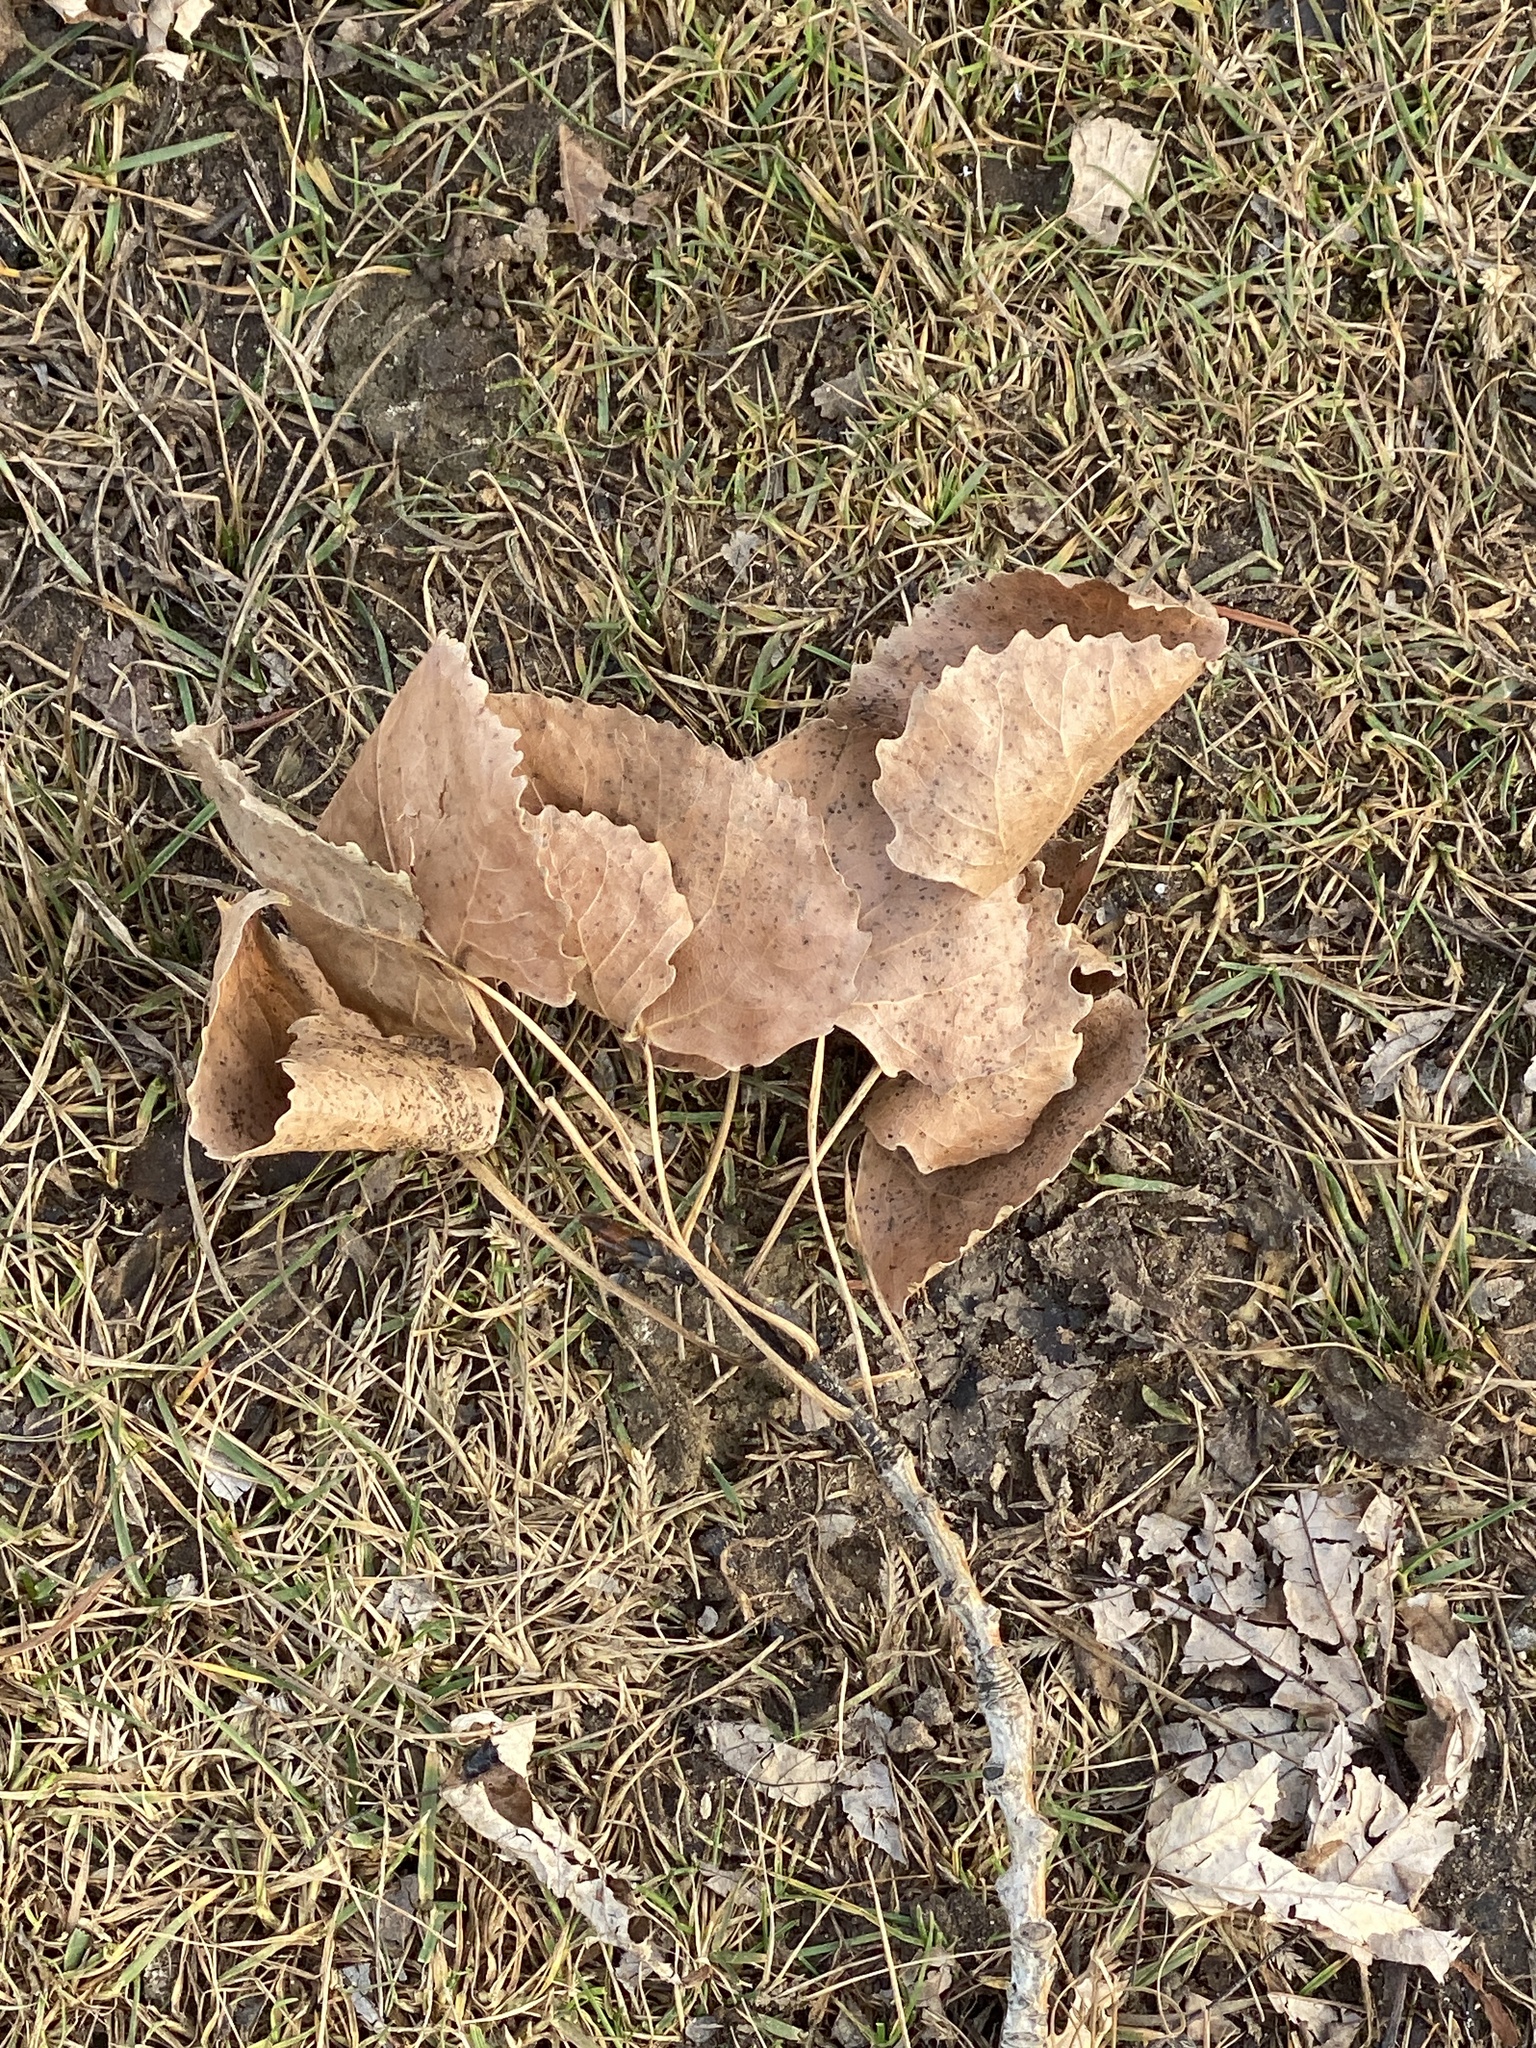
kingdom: Plantae
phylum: Tracheophyta
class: Magnoliopsida
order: Malpighiales
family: Salicaceae
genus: Populus
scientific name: Populus deltoides
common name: Eastern cottonwood
